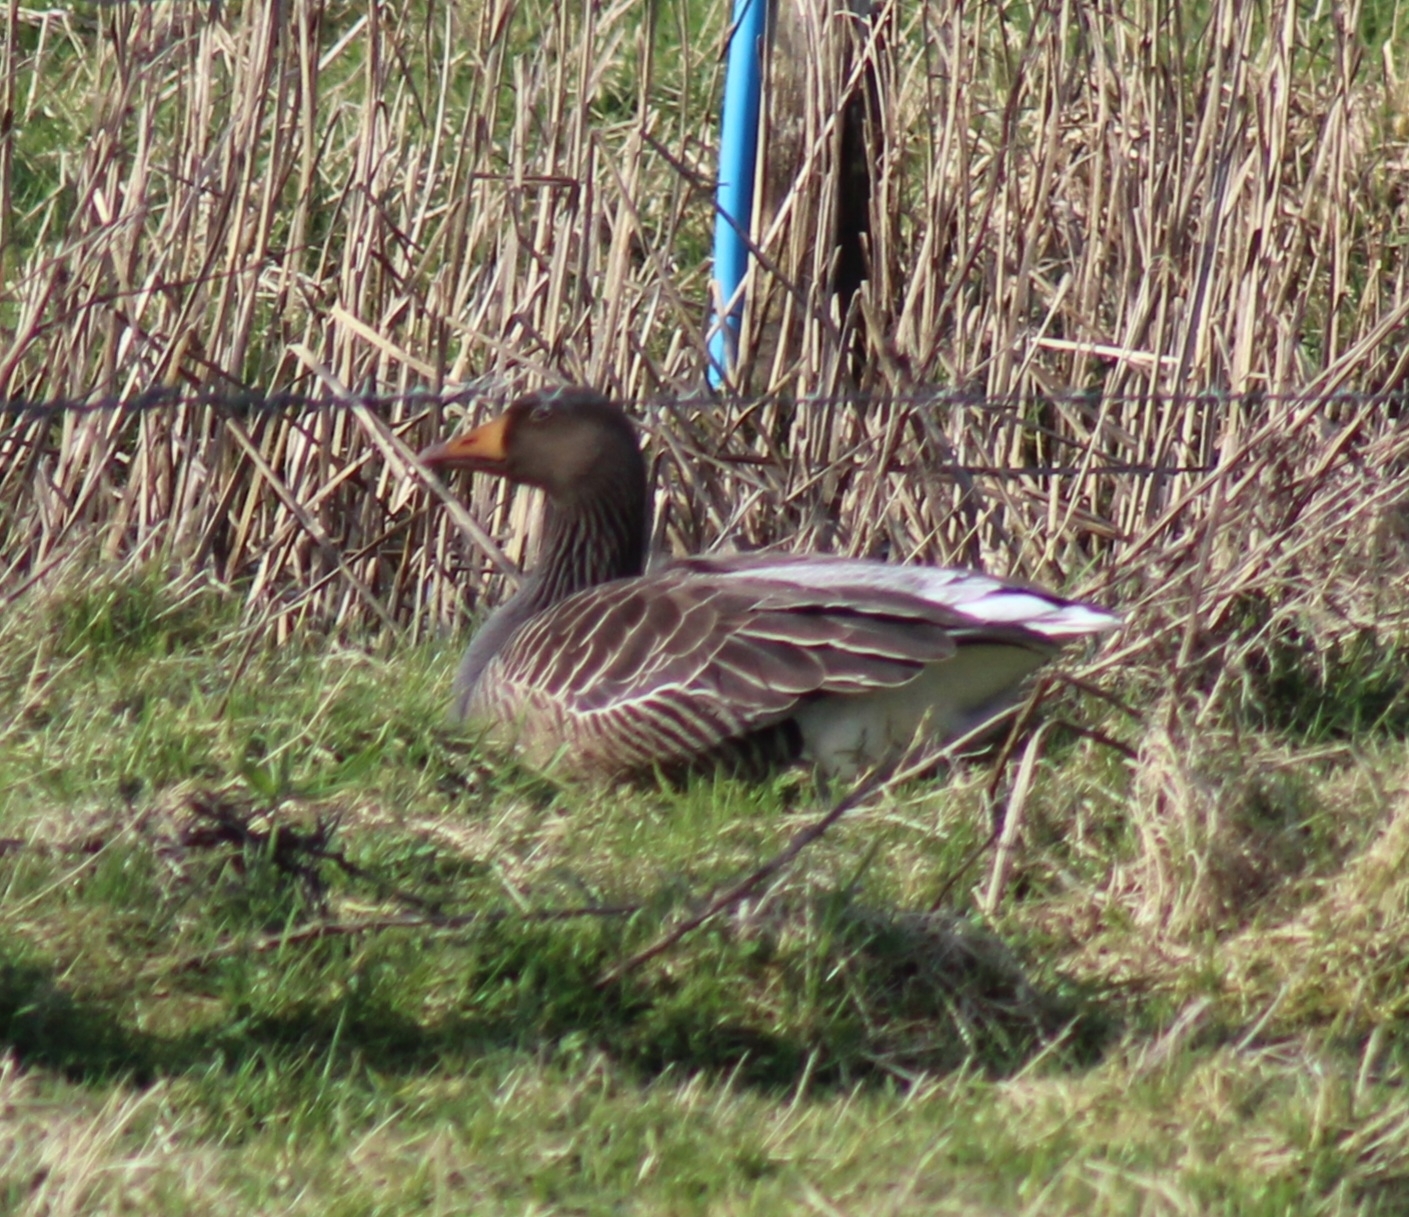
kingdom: Animalia
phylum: Chordata
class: Aves
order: Anseriformes
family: Anatidae
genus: Anser
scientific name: Anser anser
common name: Greylag goose
